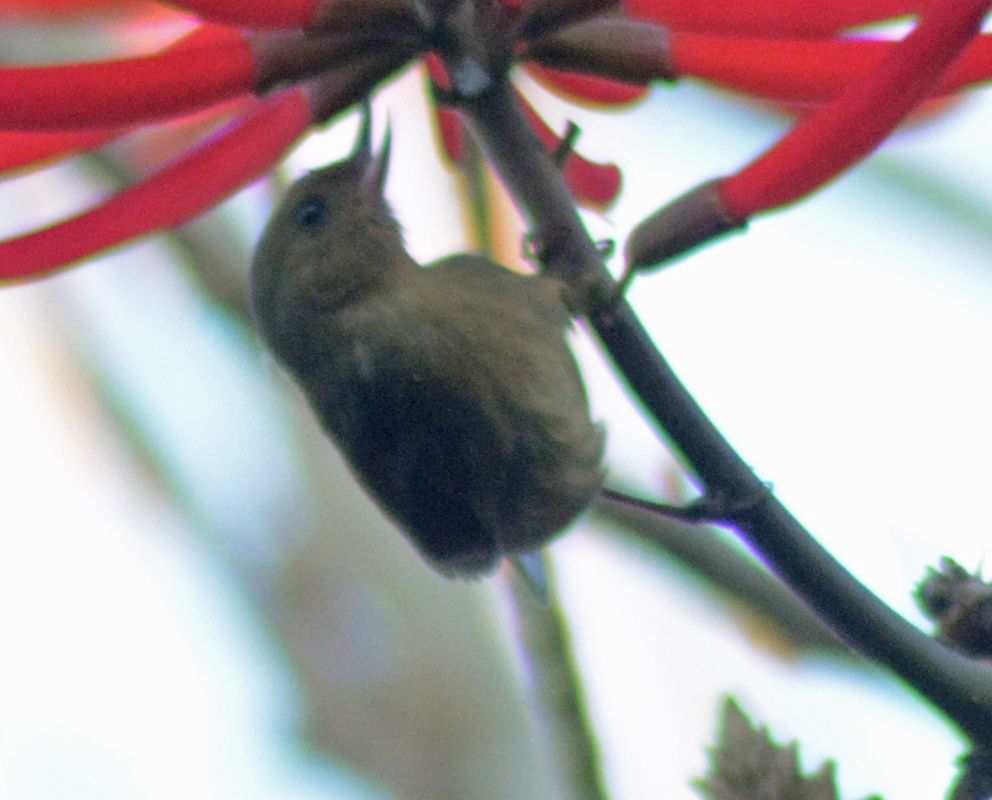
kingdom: Animalia
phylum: Chordata
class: Aves
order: Passeriformes
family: Thraupidae
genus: Diglossa
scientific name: Diglossa baritula
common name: Cinnamon-bellied flowerpiercer
